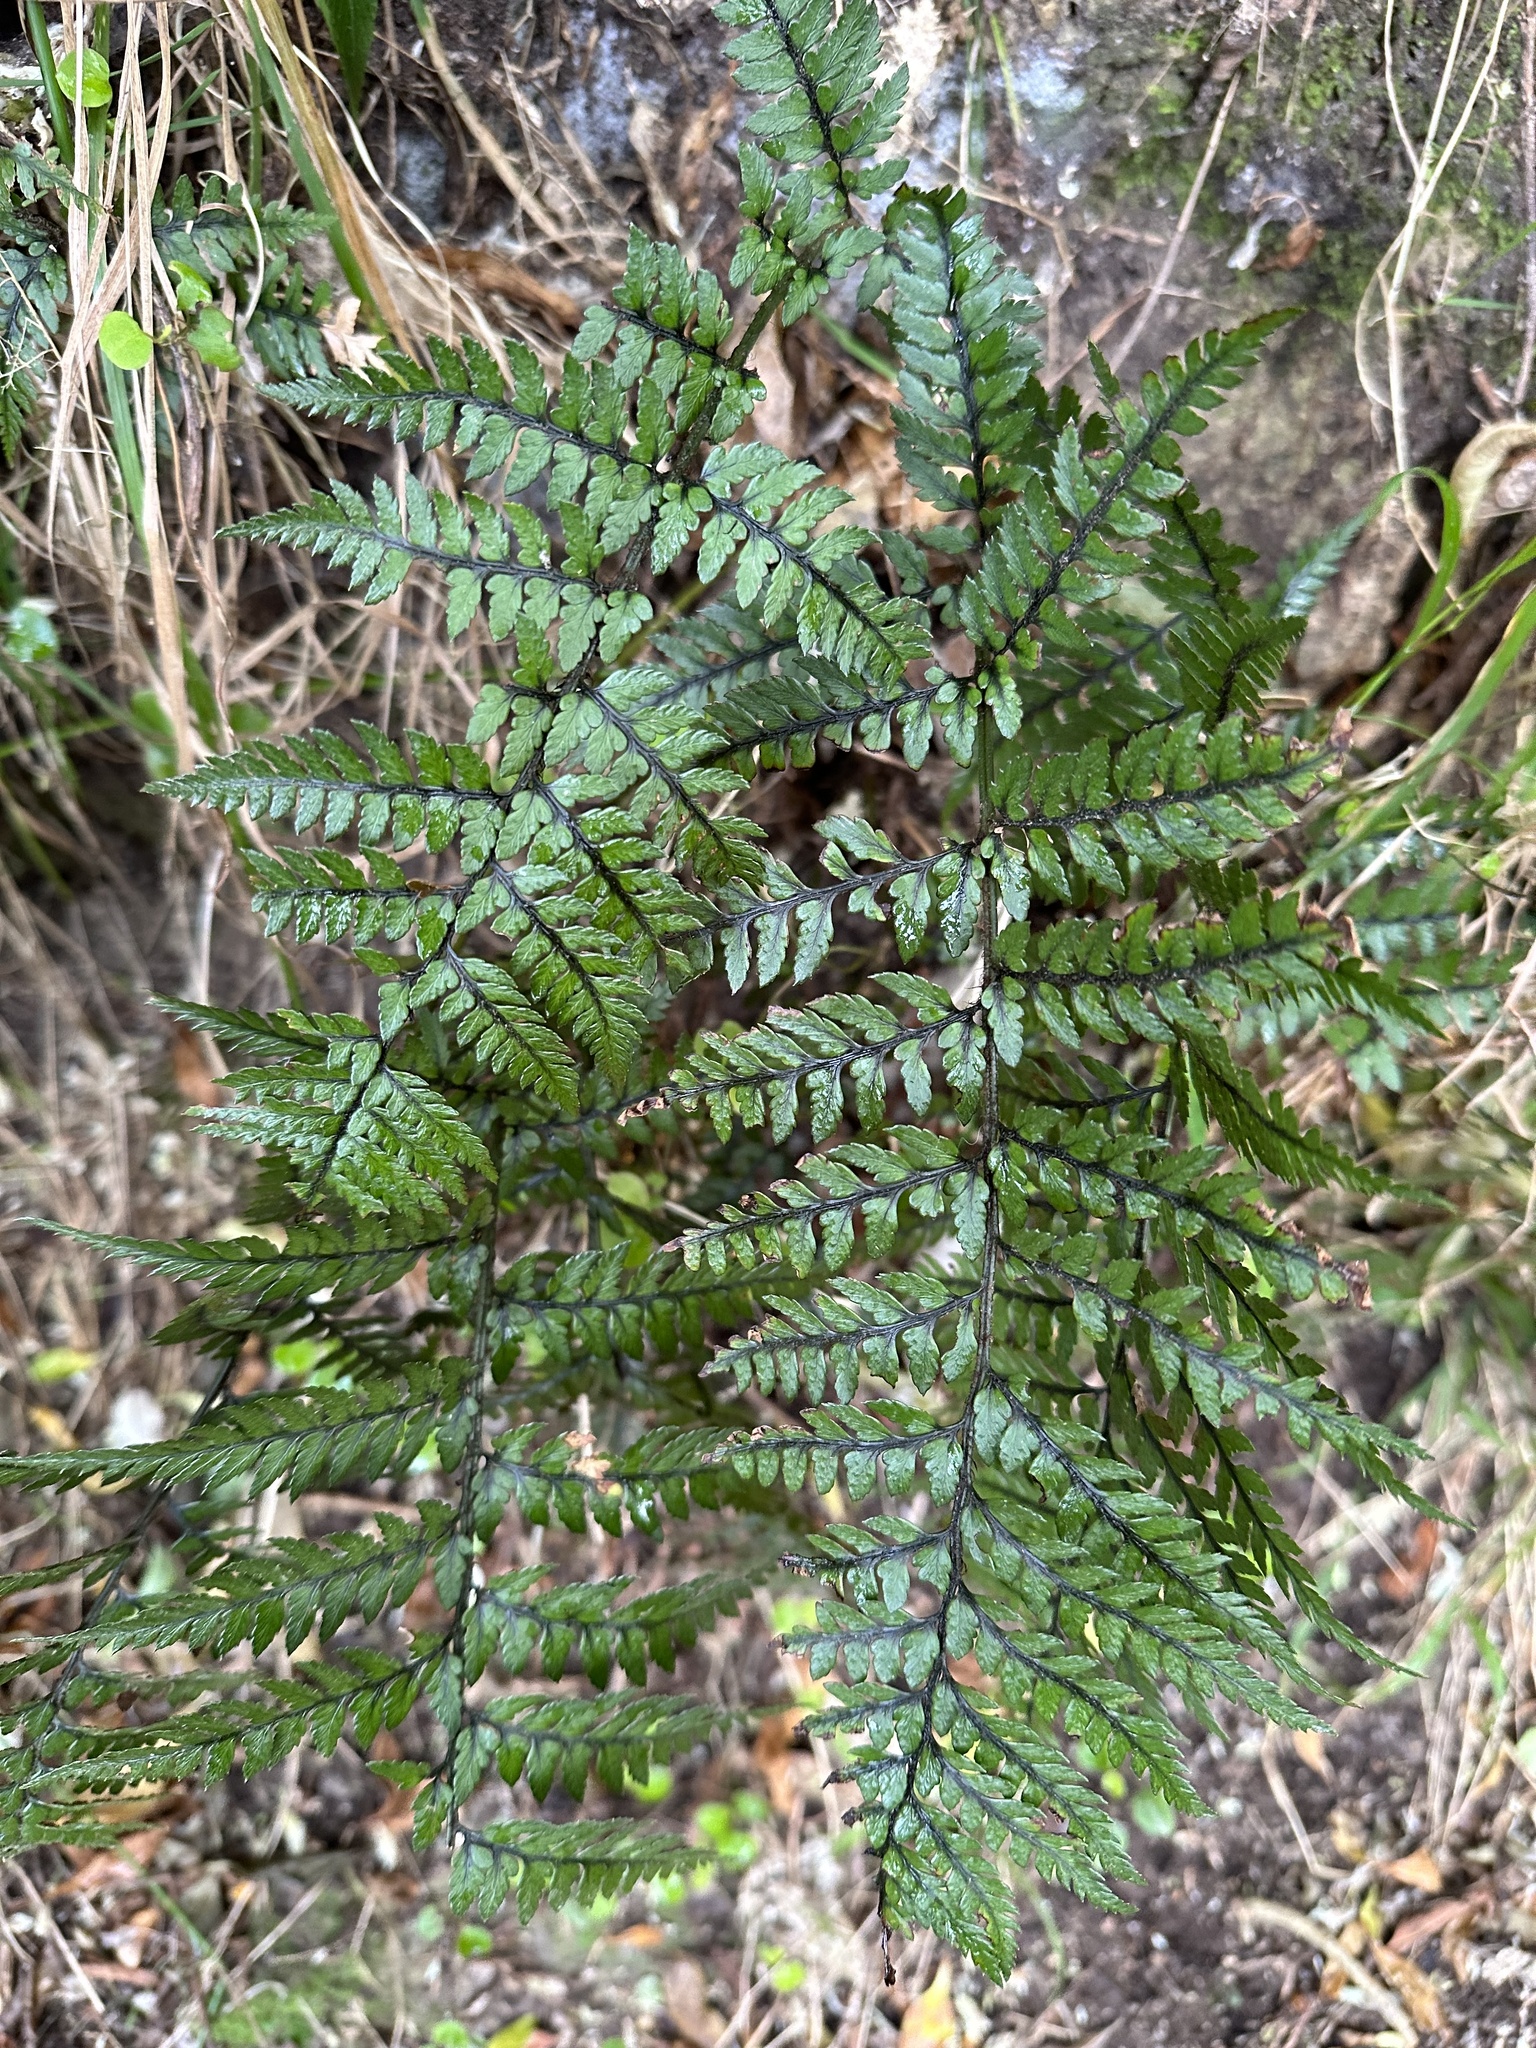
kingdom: Plantae
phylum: Tracheophyta
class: Polypodiopsida
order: Polypodiales
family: Dryopteridaceae
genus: Polystichum
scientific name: Polystichum neozelandicum
